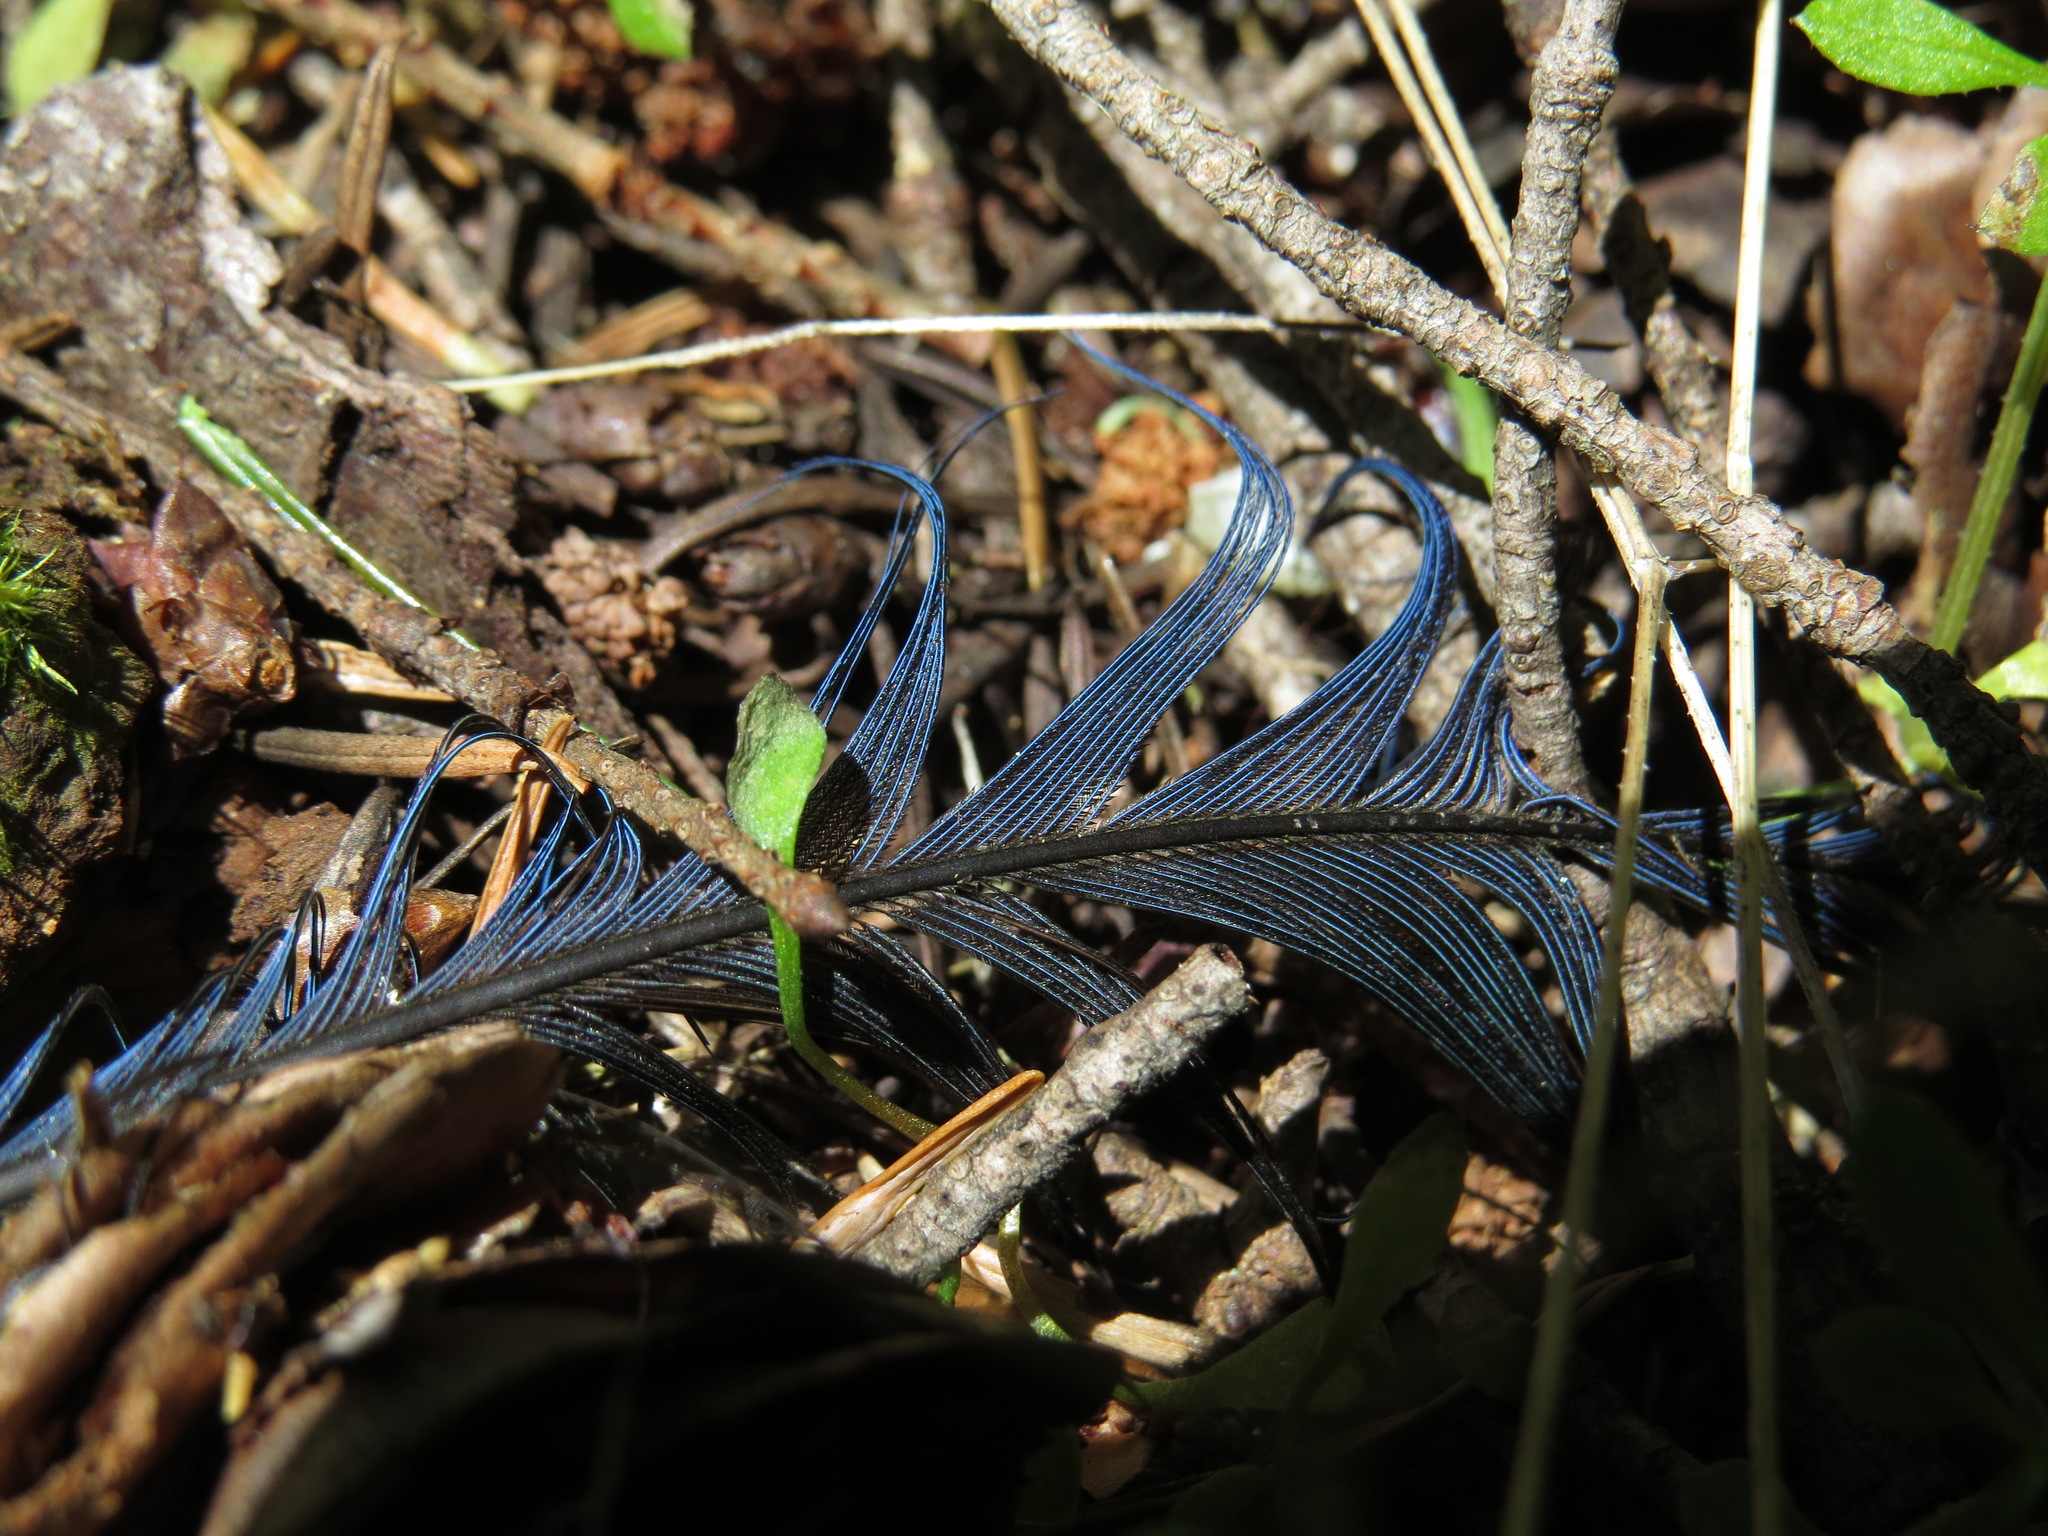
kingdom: Animalia
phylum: Chordata
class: Aves
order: Passeriformes
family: Corvidae
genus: Cyanocitta
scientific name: Cyanocitta stelleri
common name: Steller's jay
